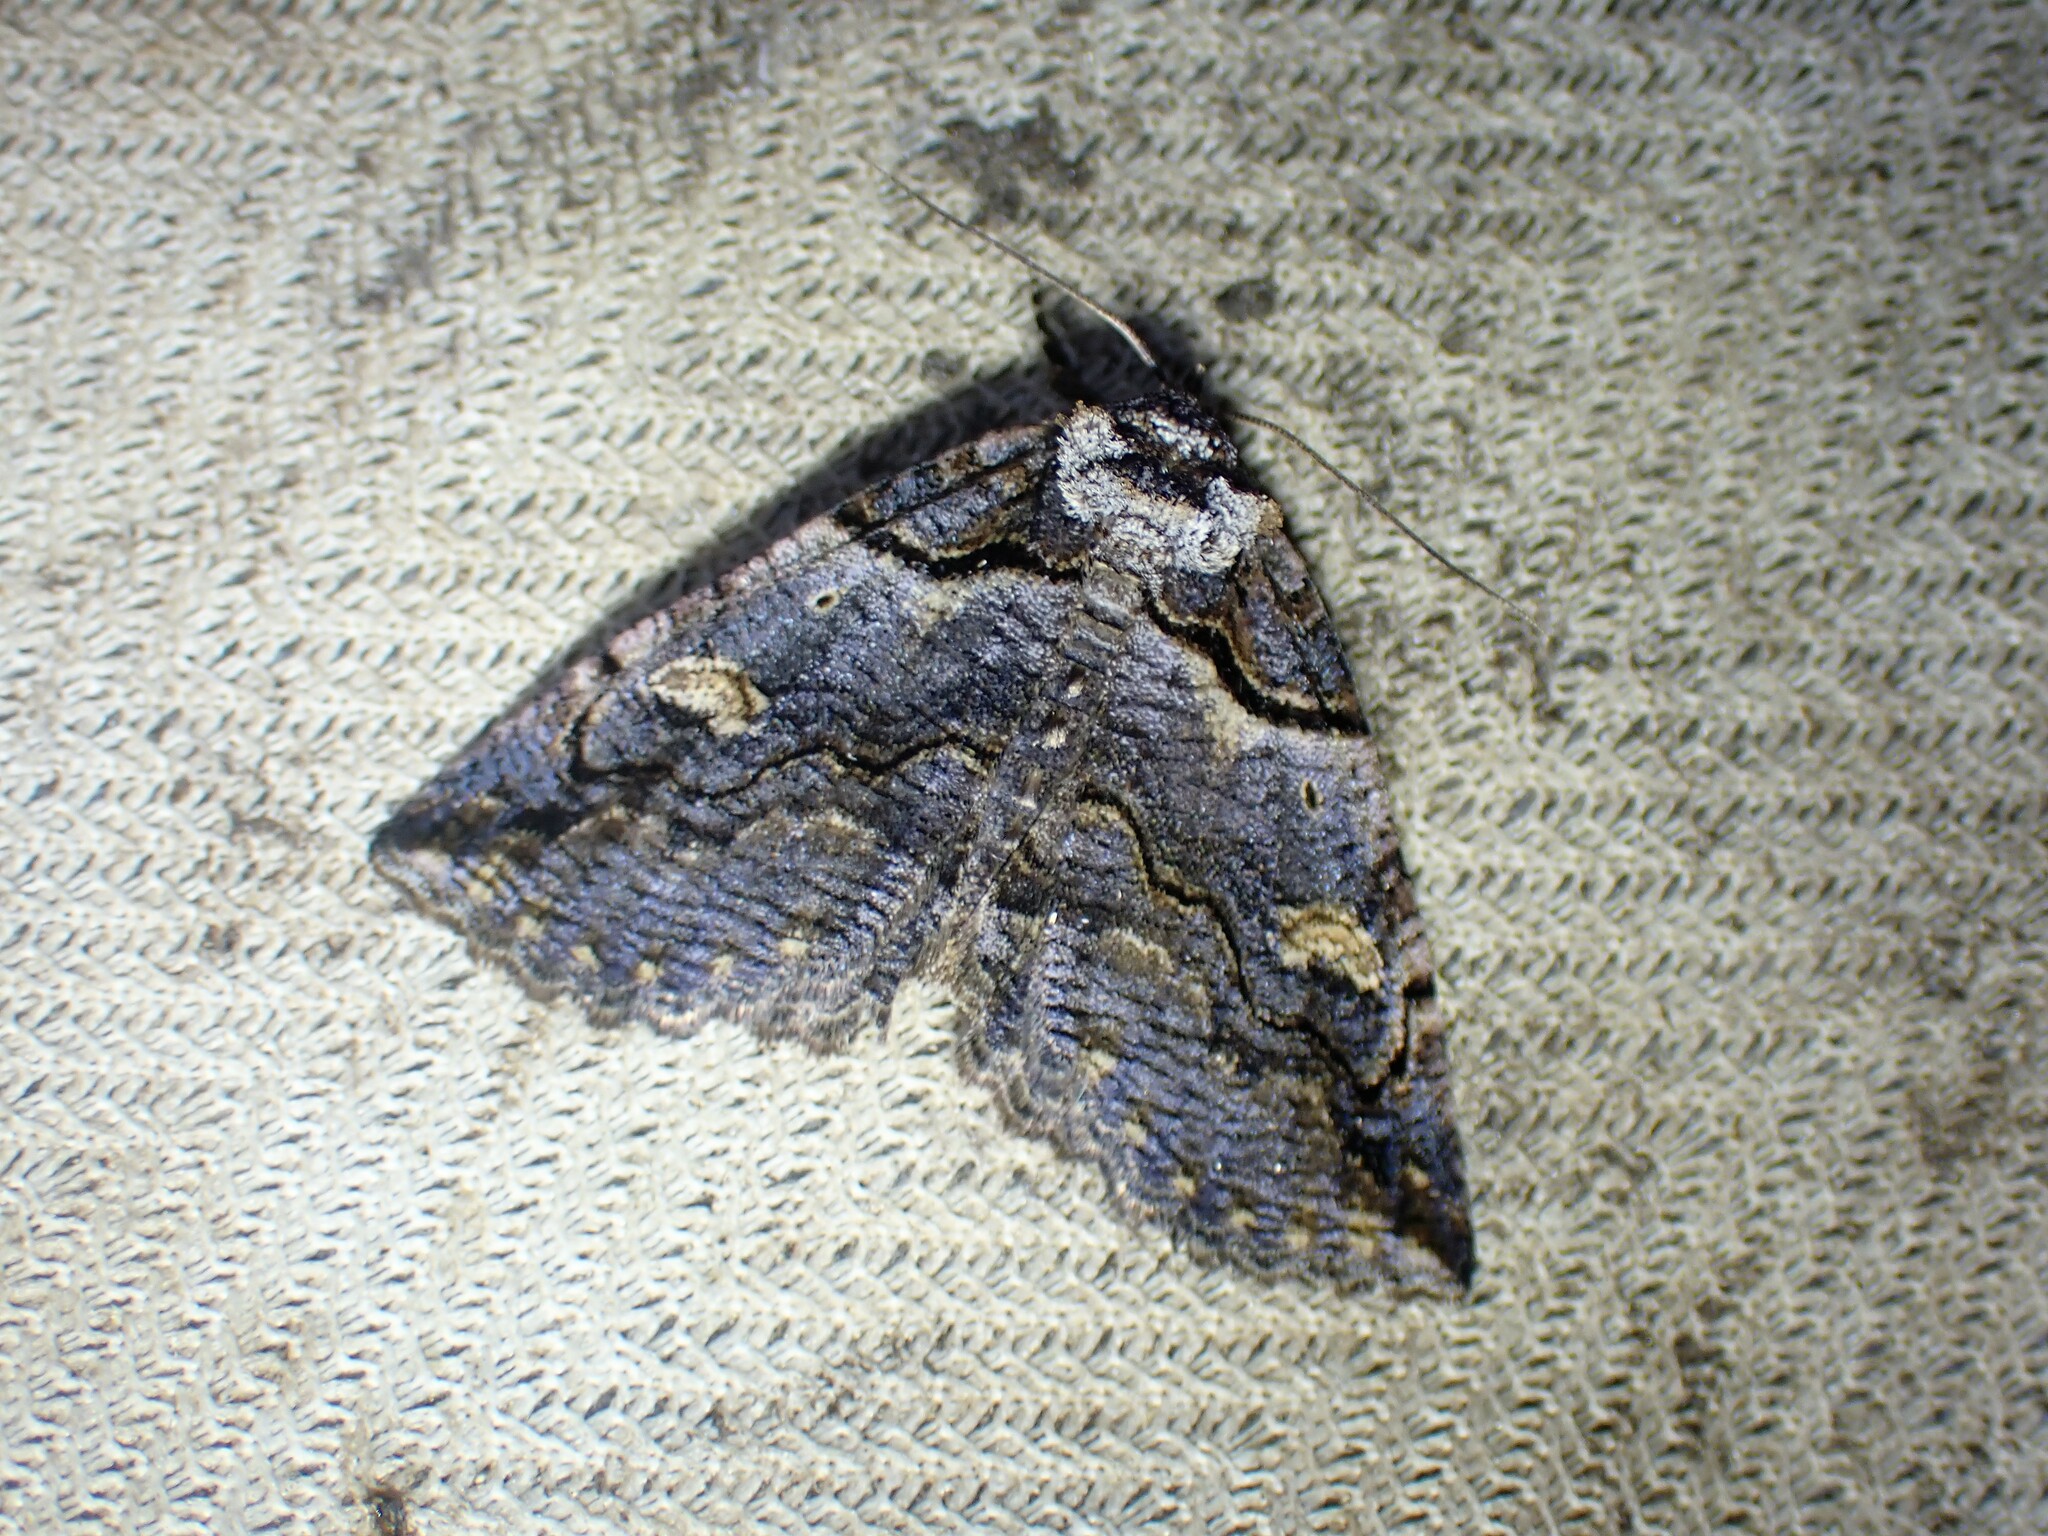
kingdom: Animalia
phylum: Arthropoda
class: Insecta
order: Lepidoptera
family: Erebidae
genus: Zale
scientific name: Zale intenta
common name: Intent zale moth
